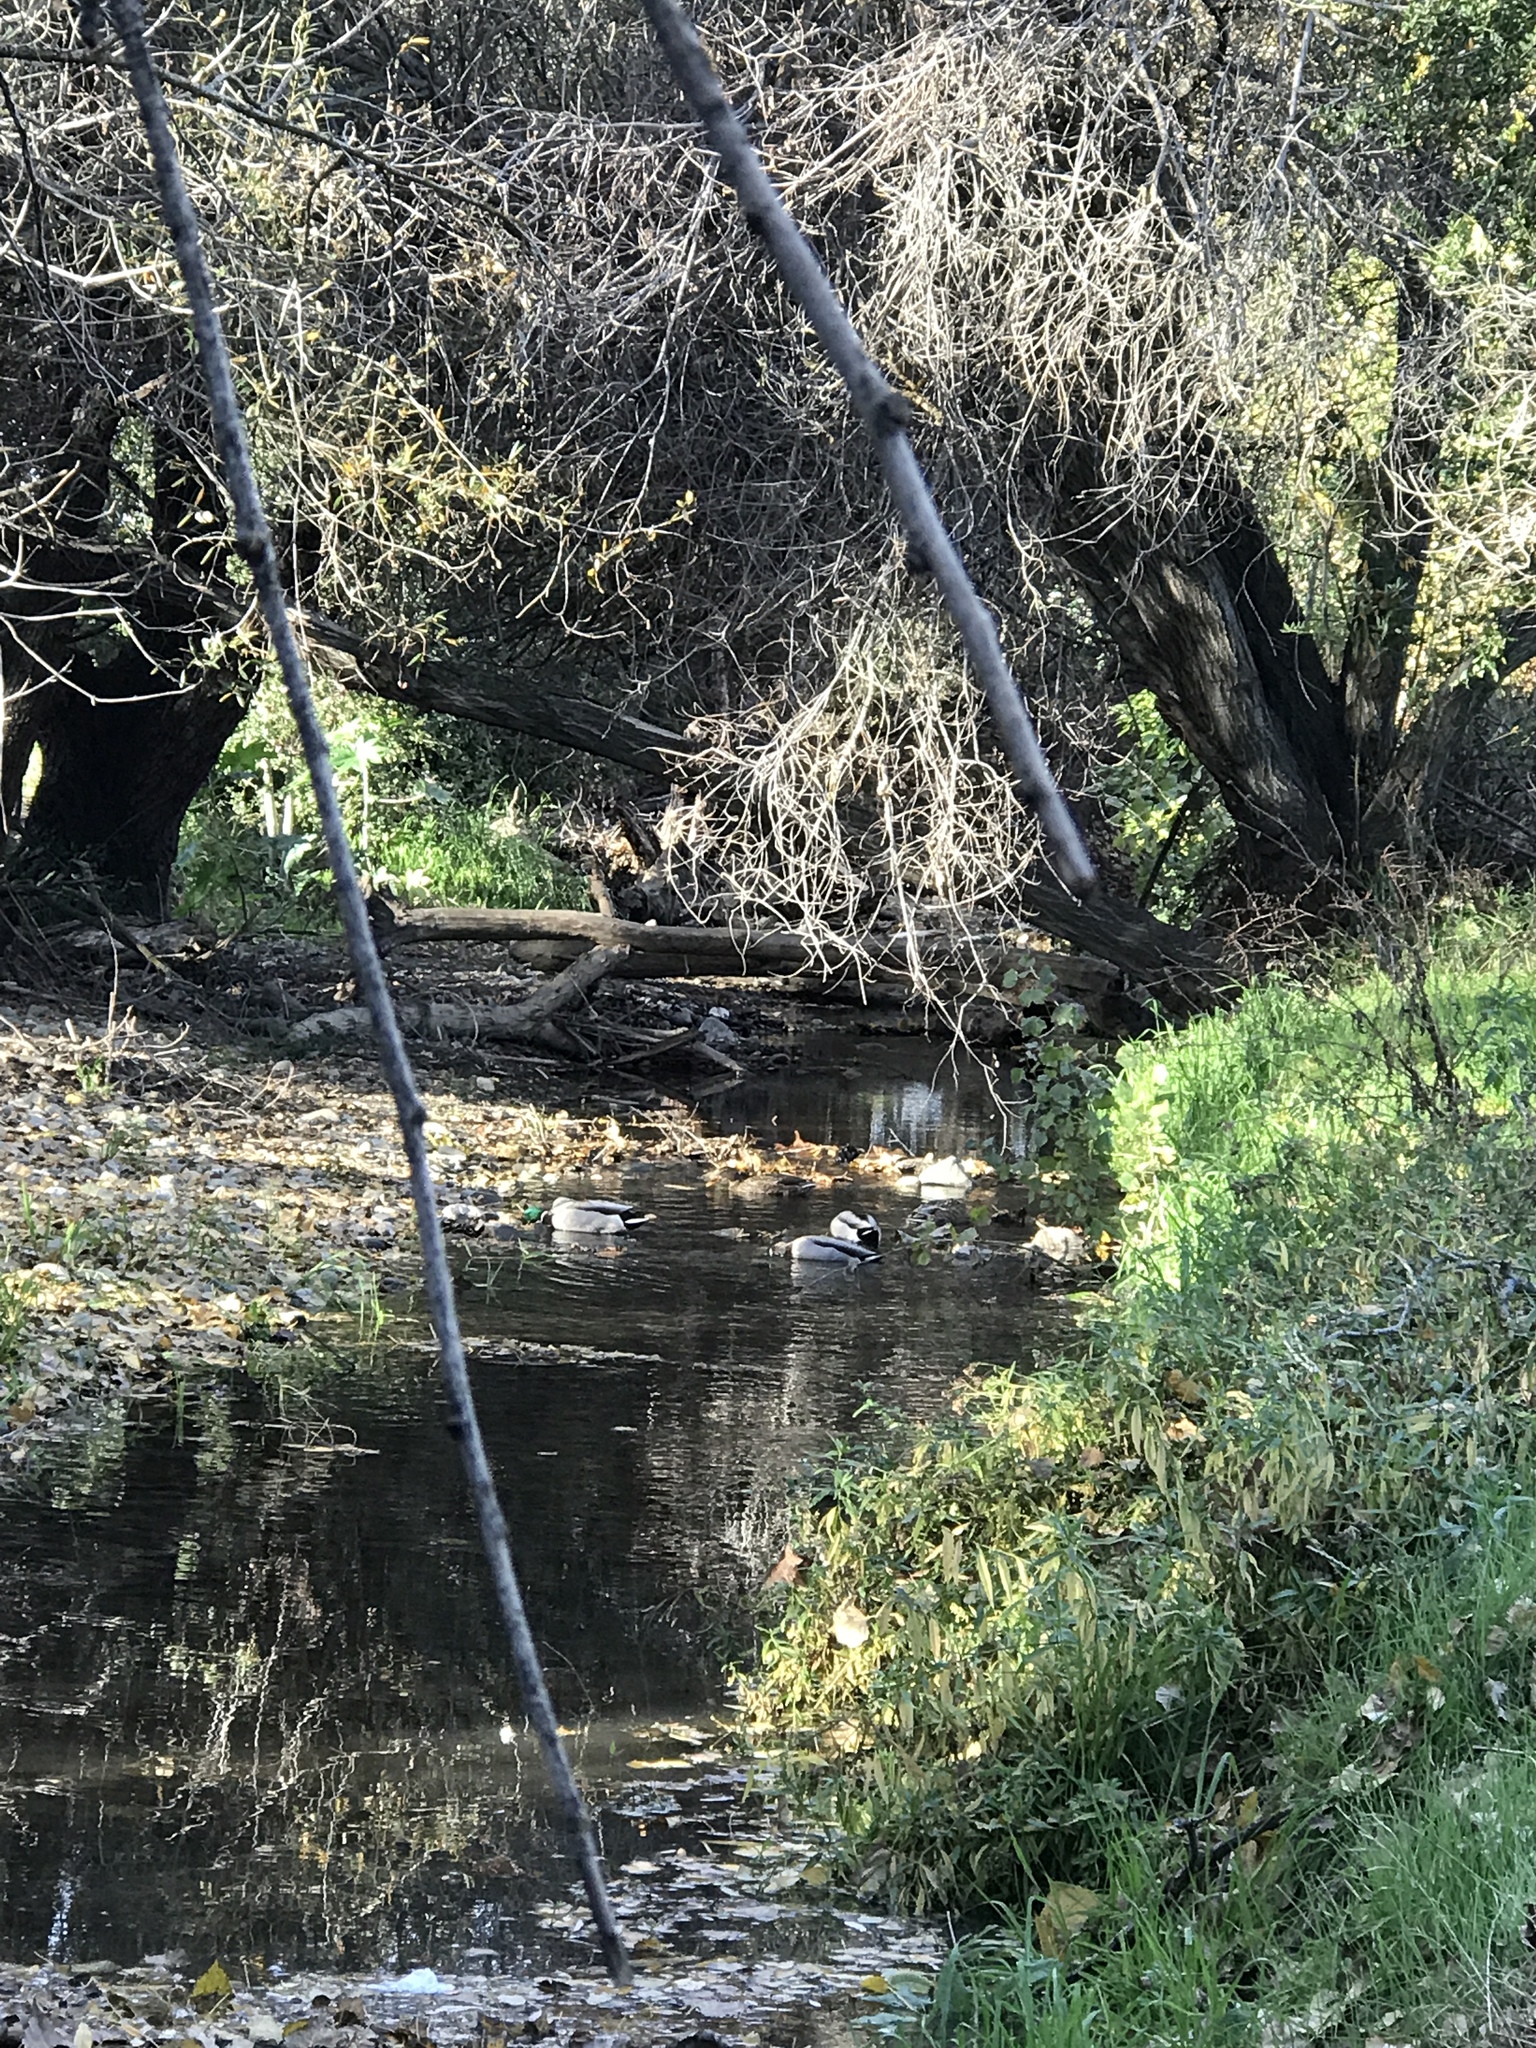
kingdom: Animalia
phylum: Chordata
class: Aves
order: Anseriformes
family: Anatidae
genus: Anas
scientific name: Anas platyrhynchos
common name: Mallard
